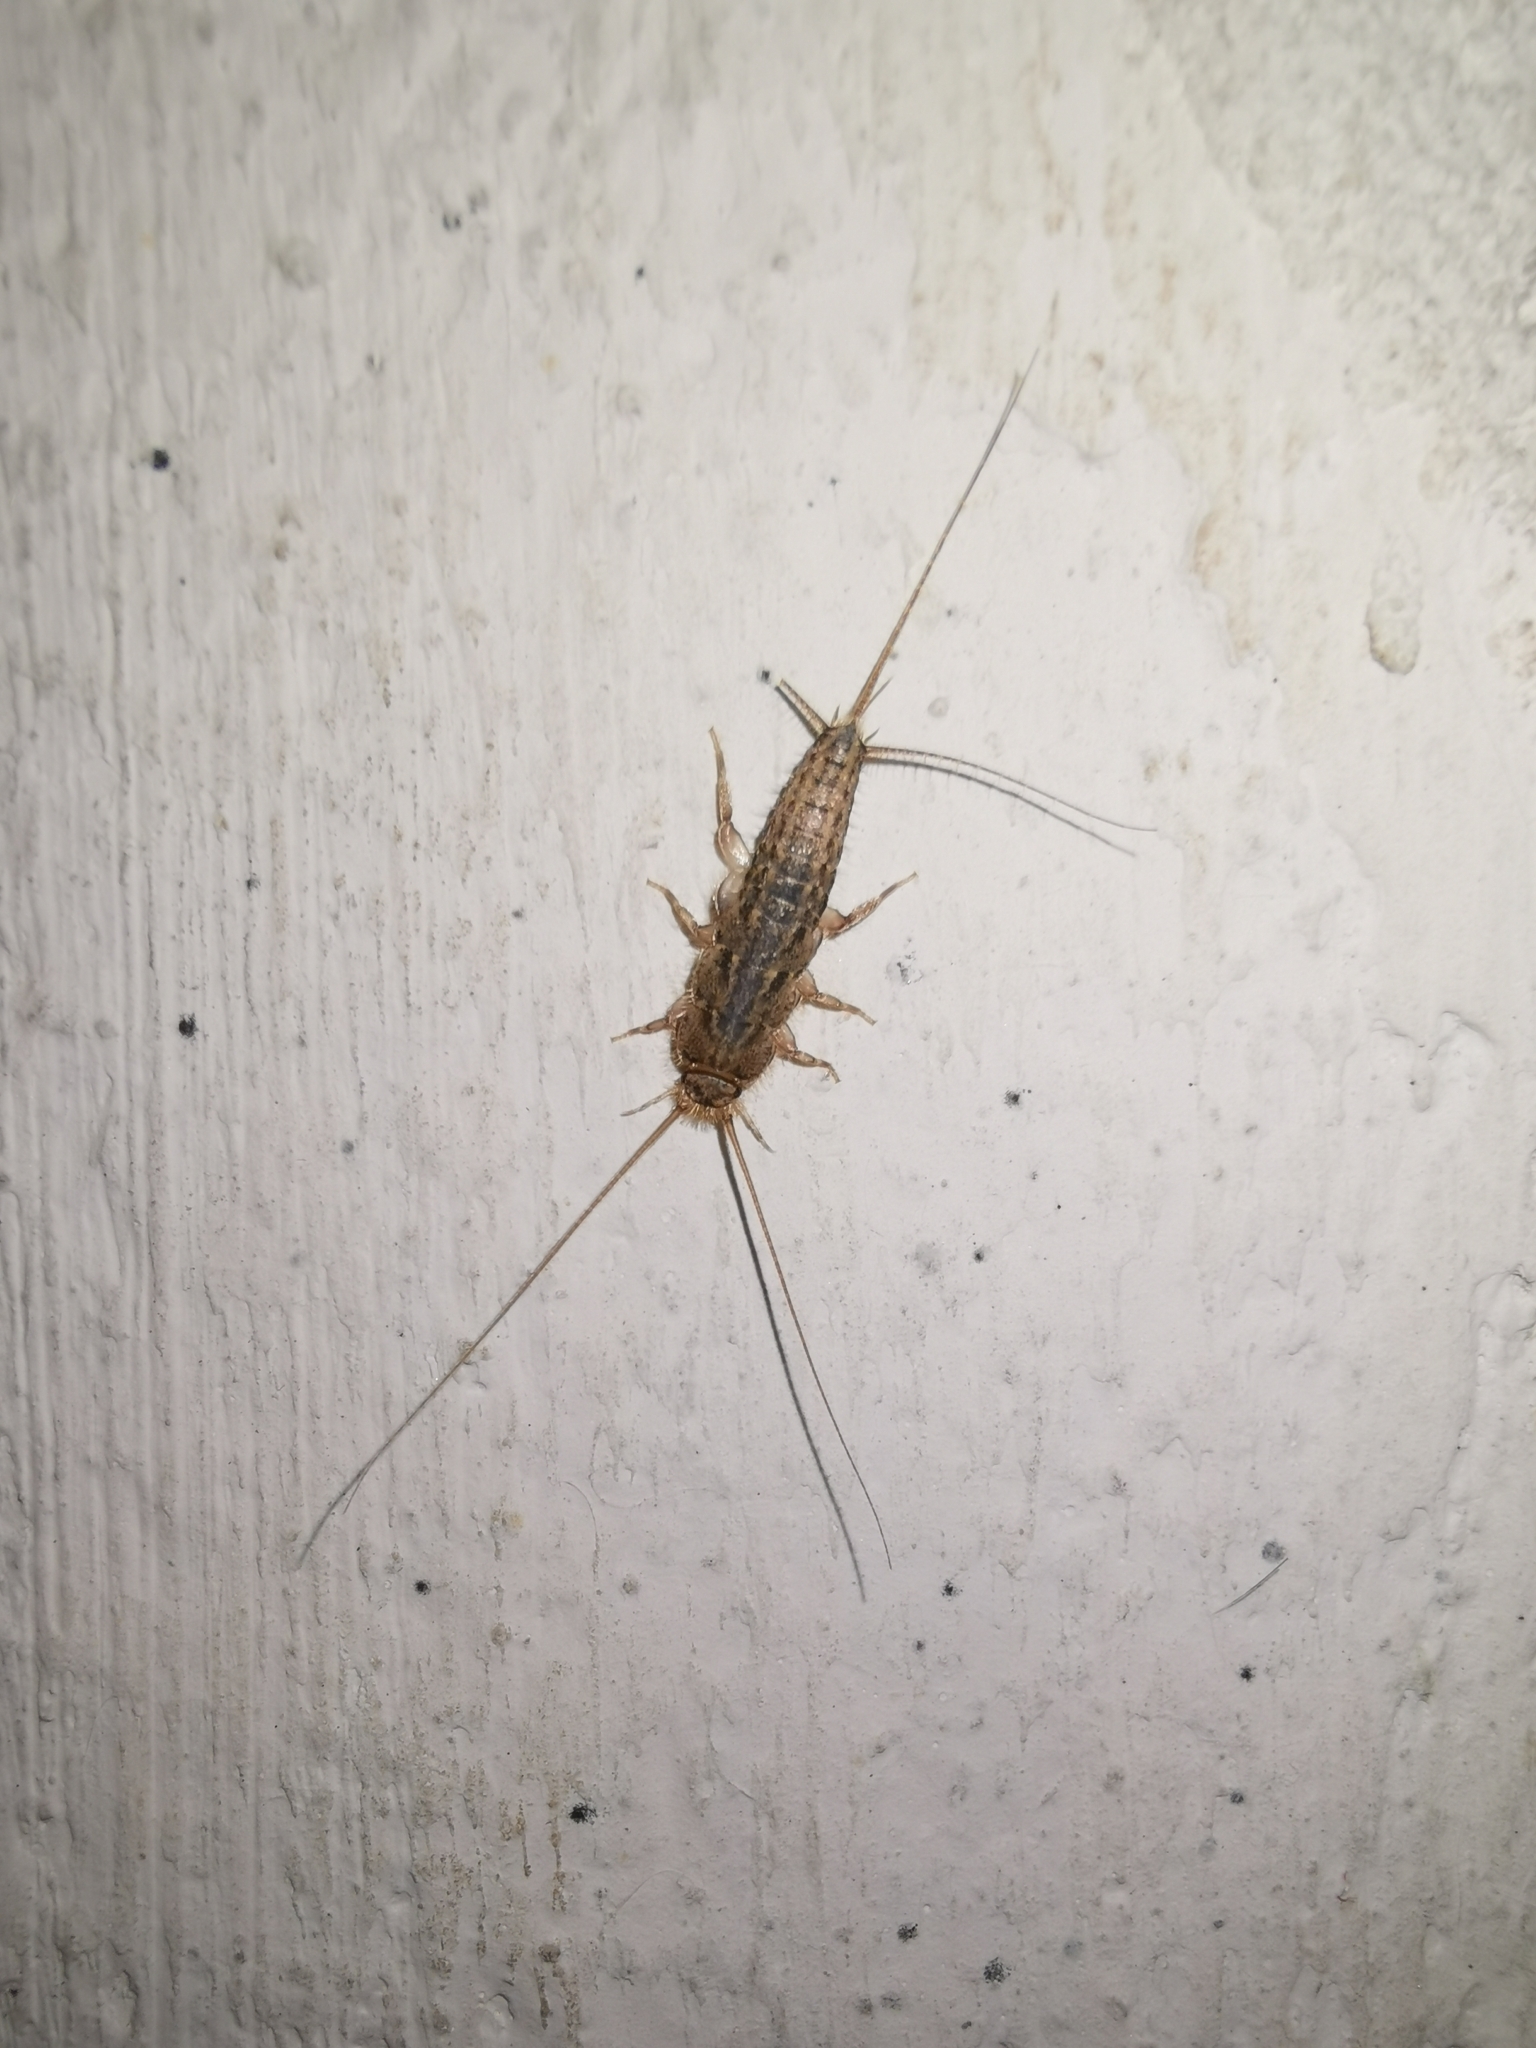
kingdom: Animalia
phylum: Arthropoda
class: Insecta
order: Zygentoma
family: Lepismatidae
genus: Ctenolepisma
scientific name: Ctenolepisma lineata
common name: Four-lined silverfish
